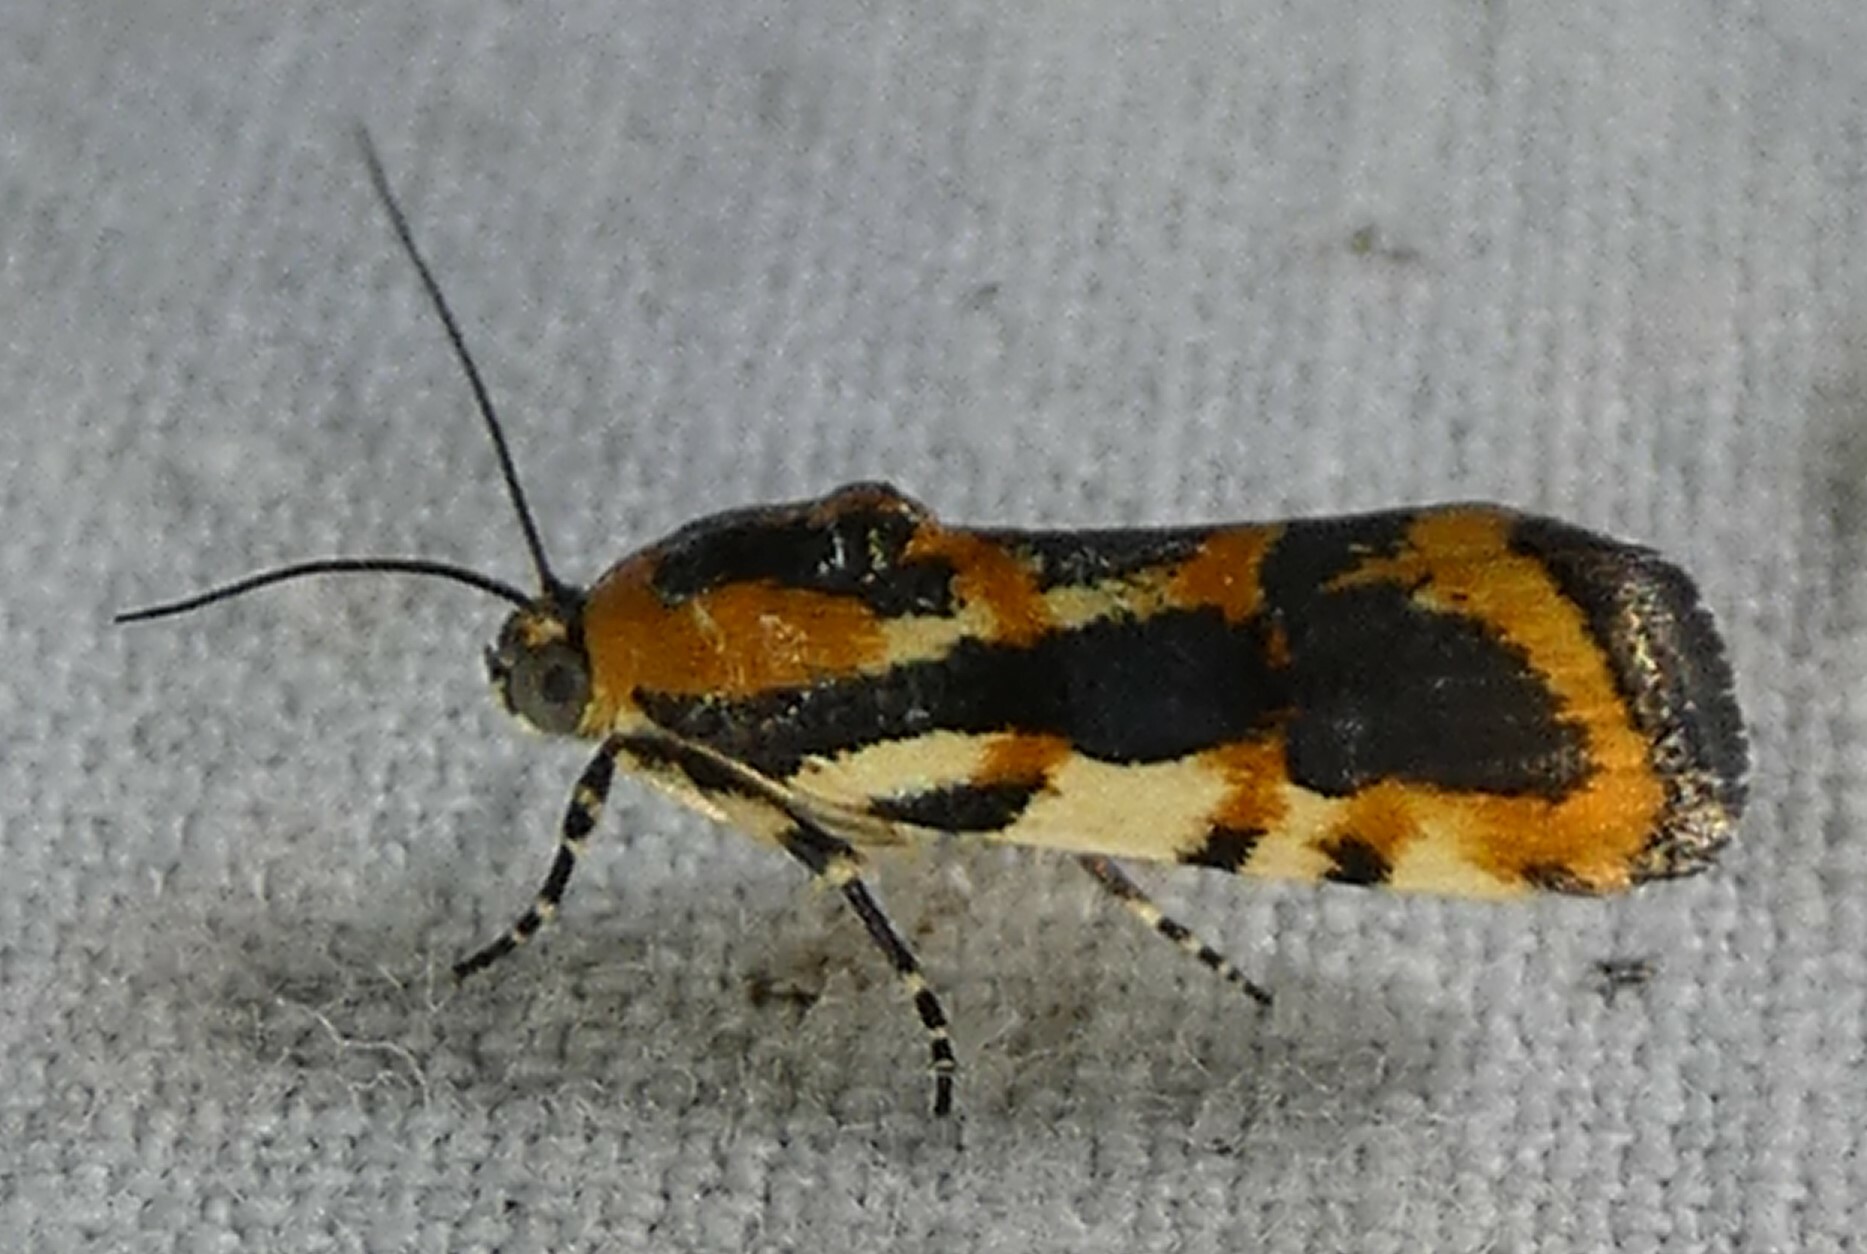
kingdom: Animalia
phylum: Arthropoda
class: Insecta
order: Lepidoptera
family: Noctuidae
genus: Acontia
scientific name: Acontia leo
